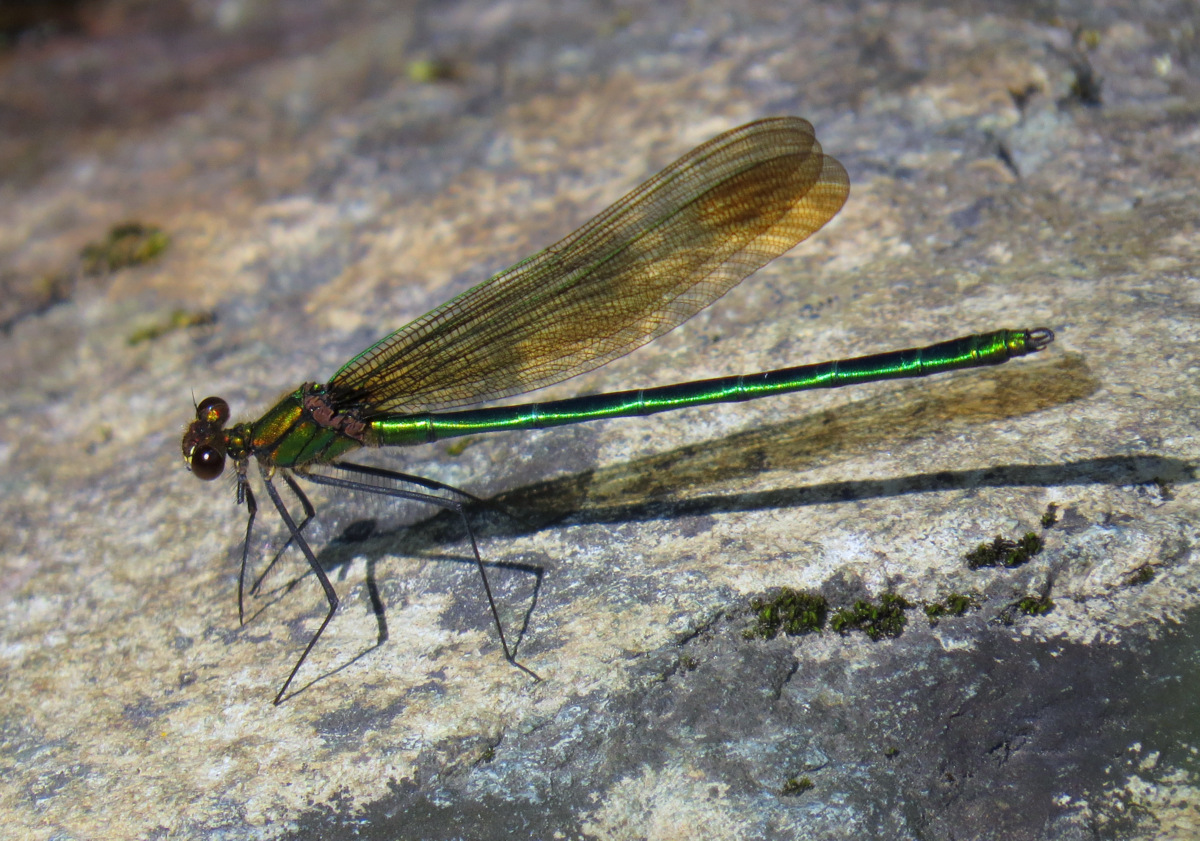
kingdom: Animalia
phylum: Arthropoda
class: Insecta
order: Odonata
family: Calopterygidae
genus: Calopteryx
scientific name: Calopteryx amata
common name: Superb jewelwing
